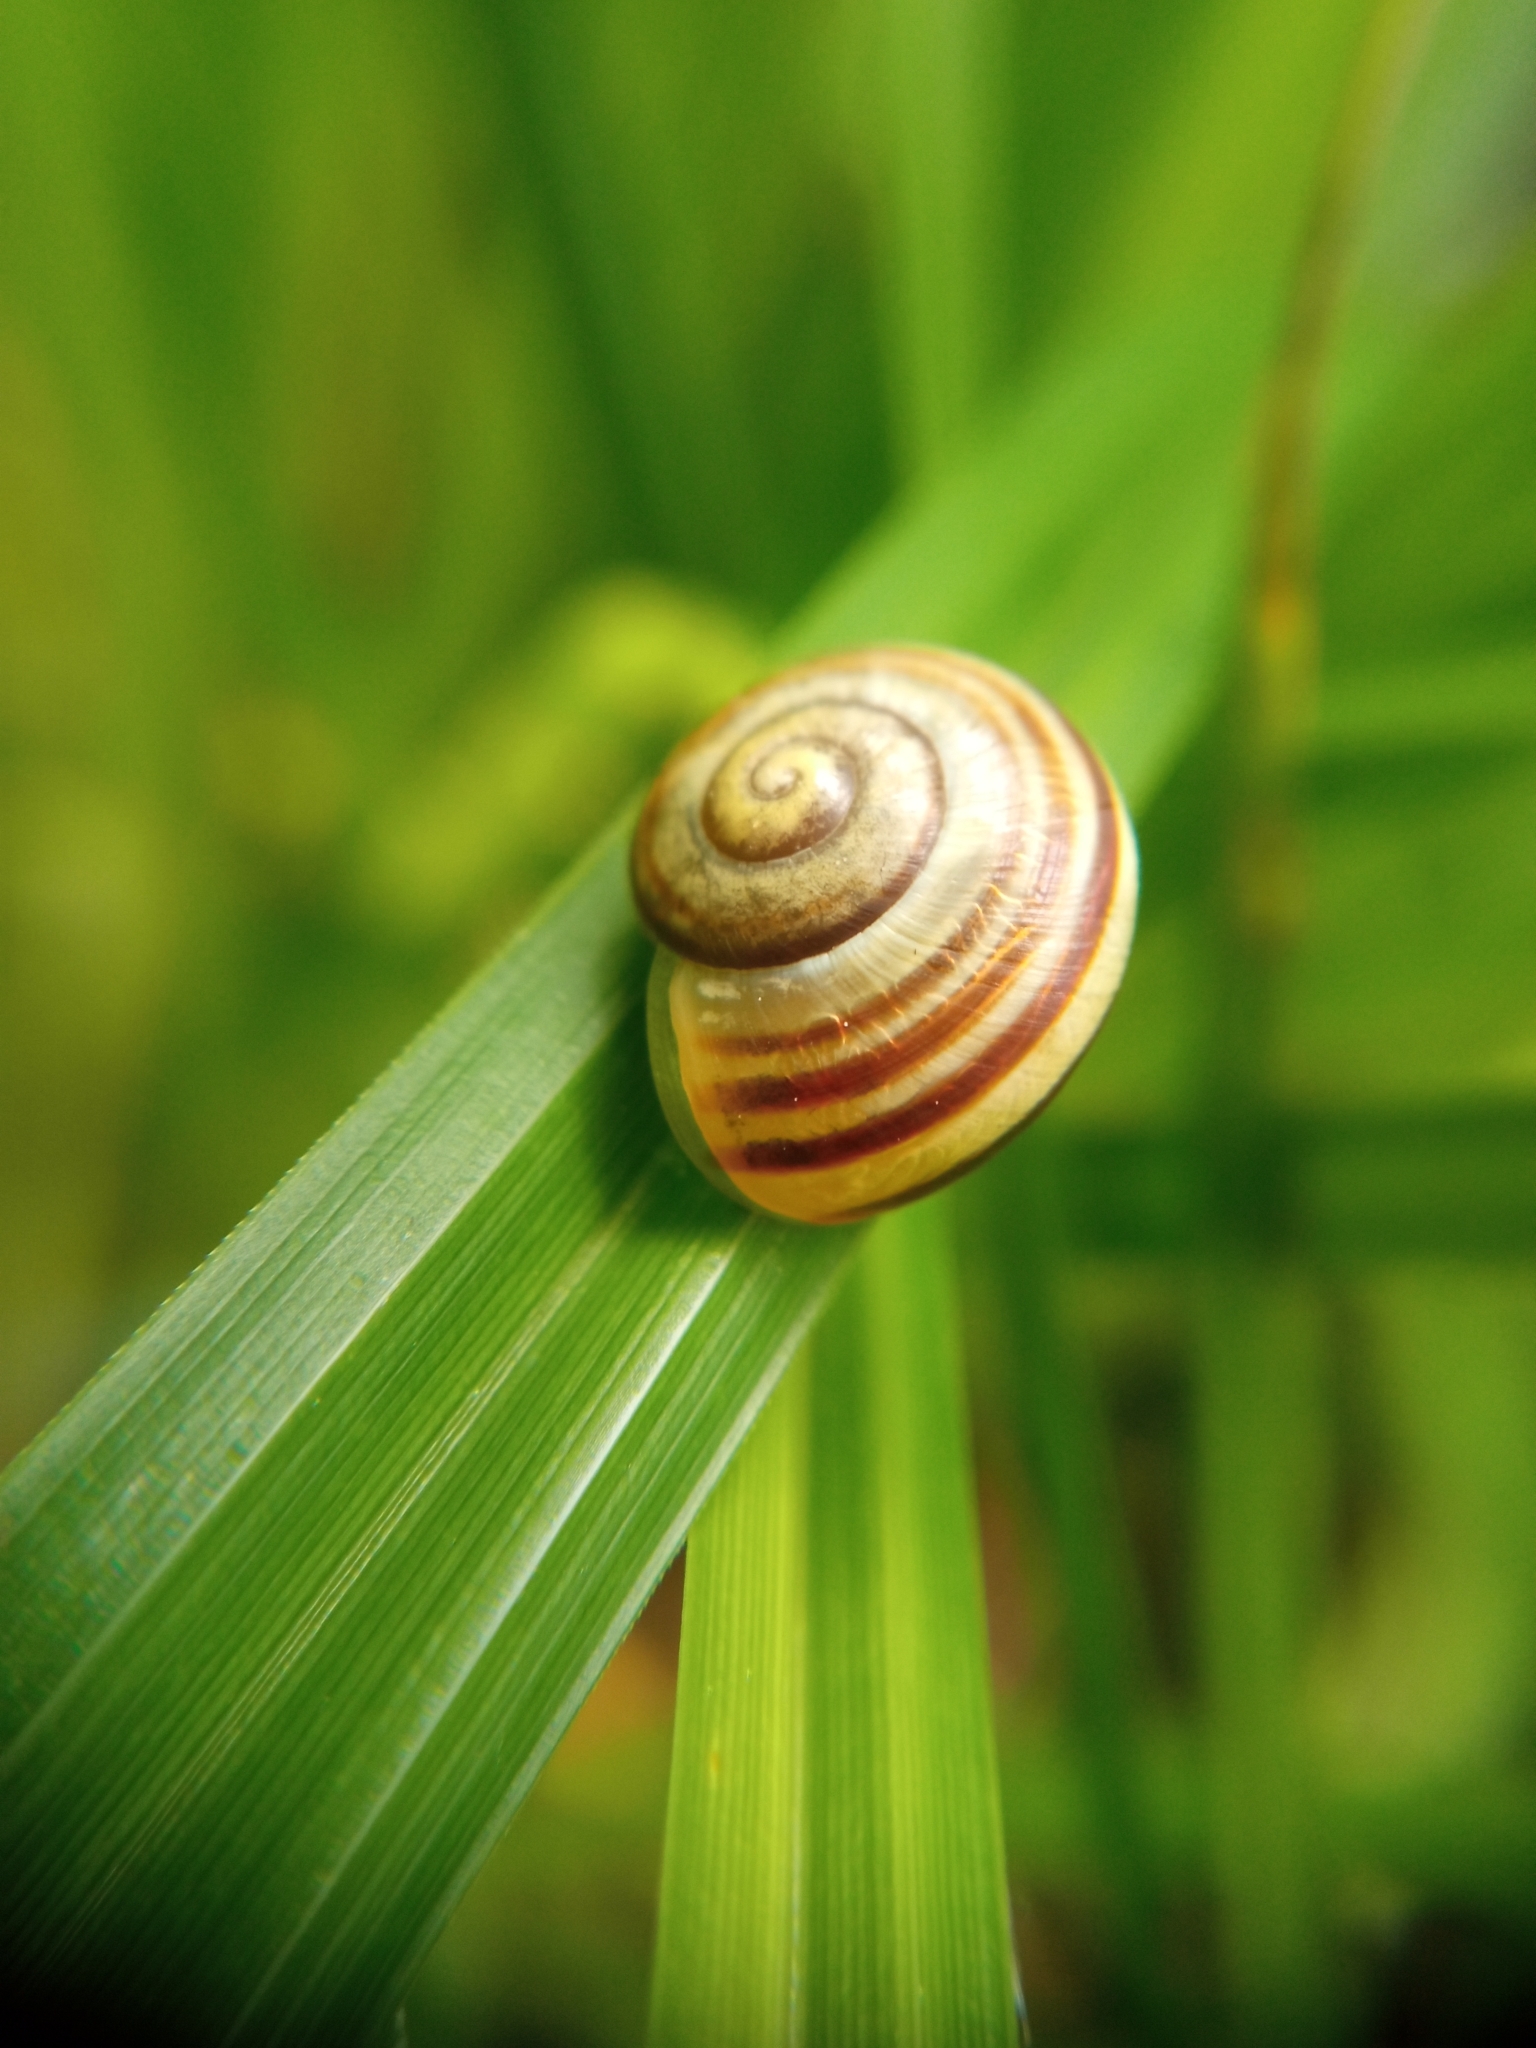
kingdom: Animalia
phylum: Mollusca
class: Gastropoda
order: Stylommatophora
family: Helicidae
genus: Cepaea
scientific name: Cepaea hortensis
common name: White-lip gardensnail
